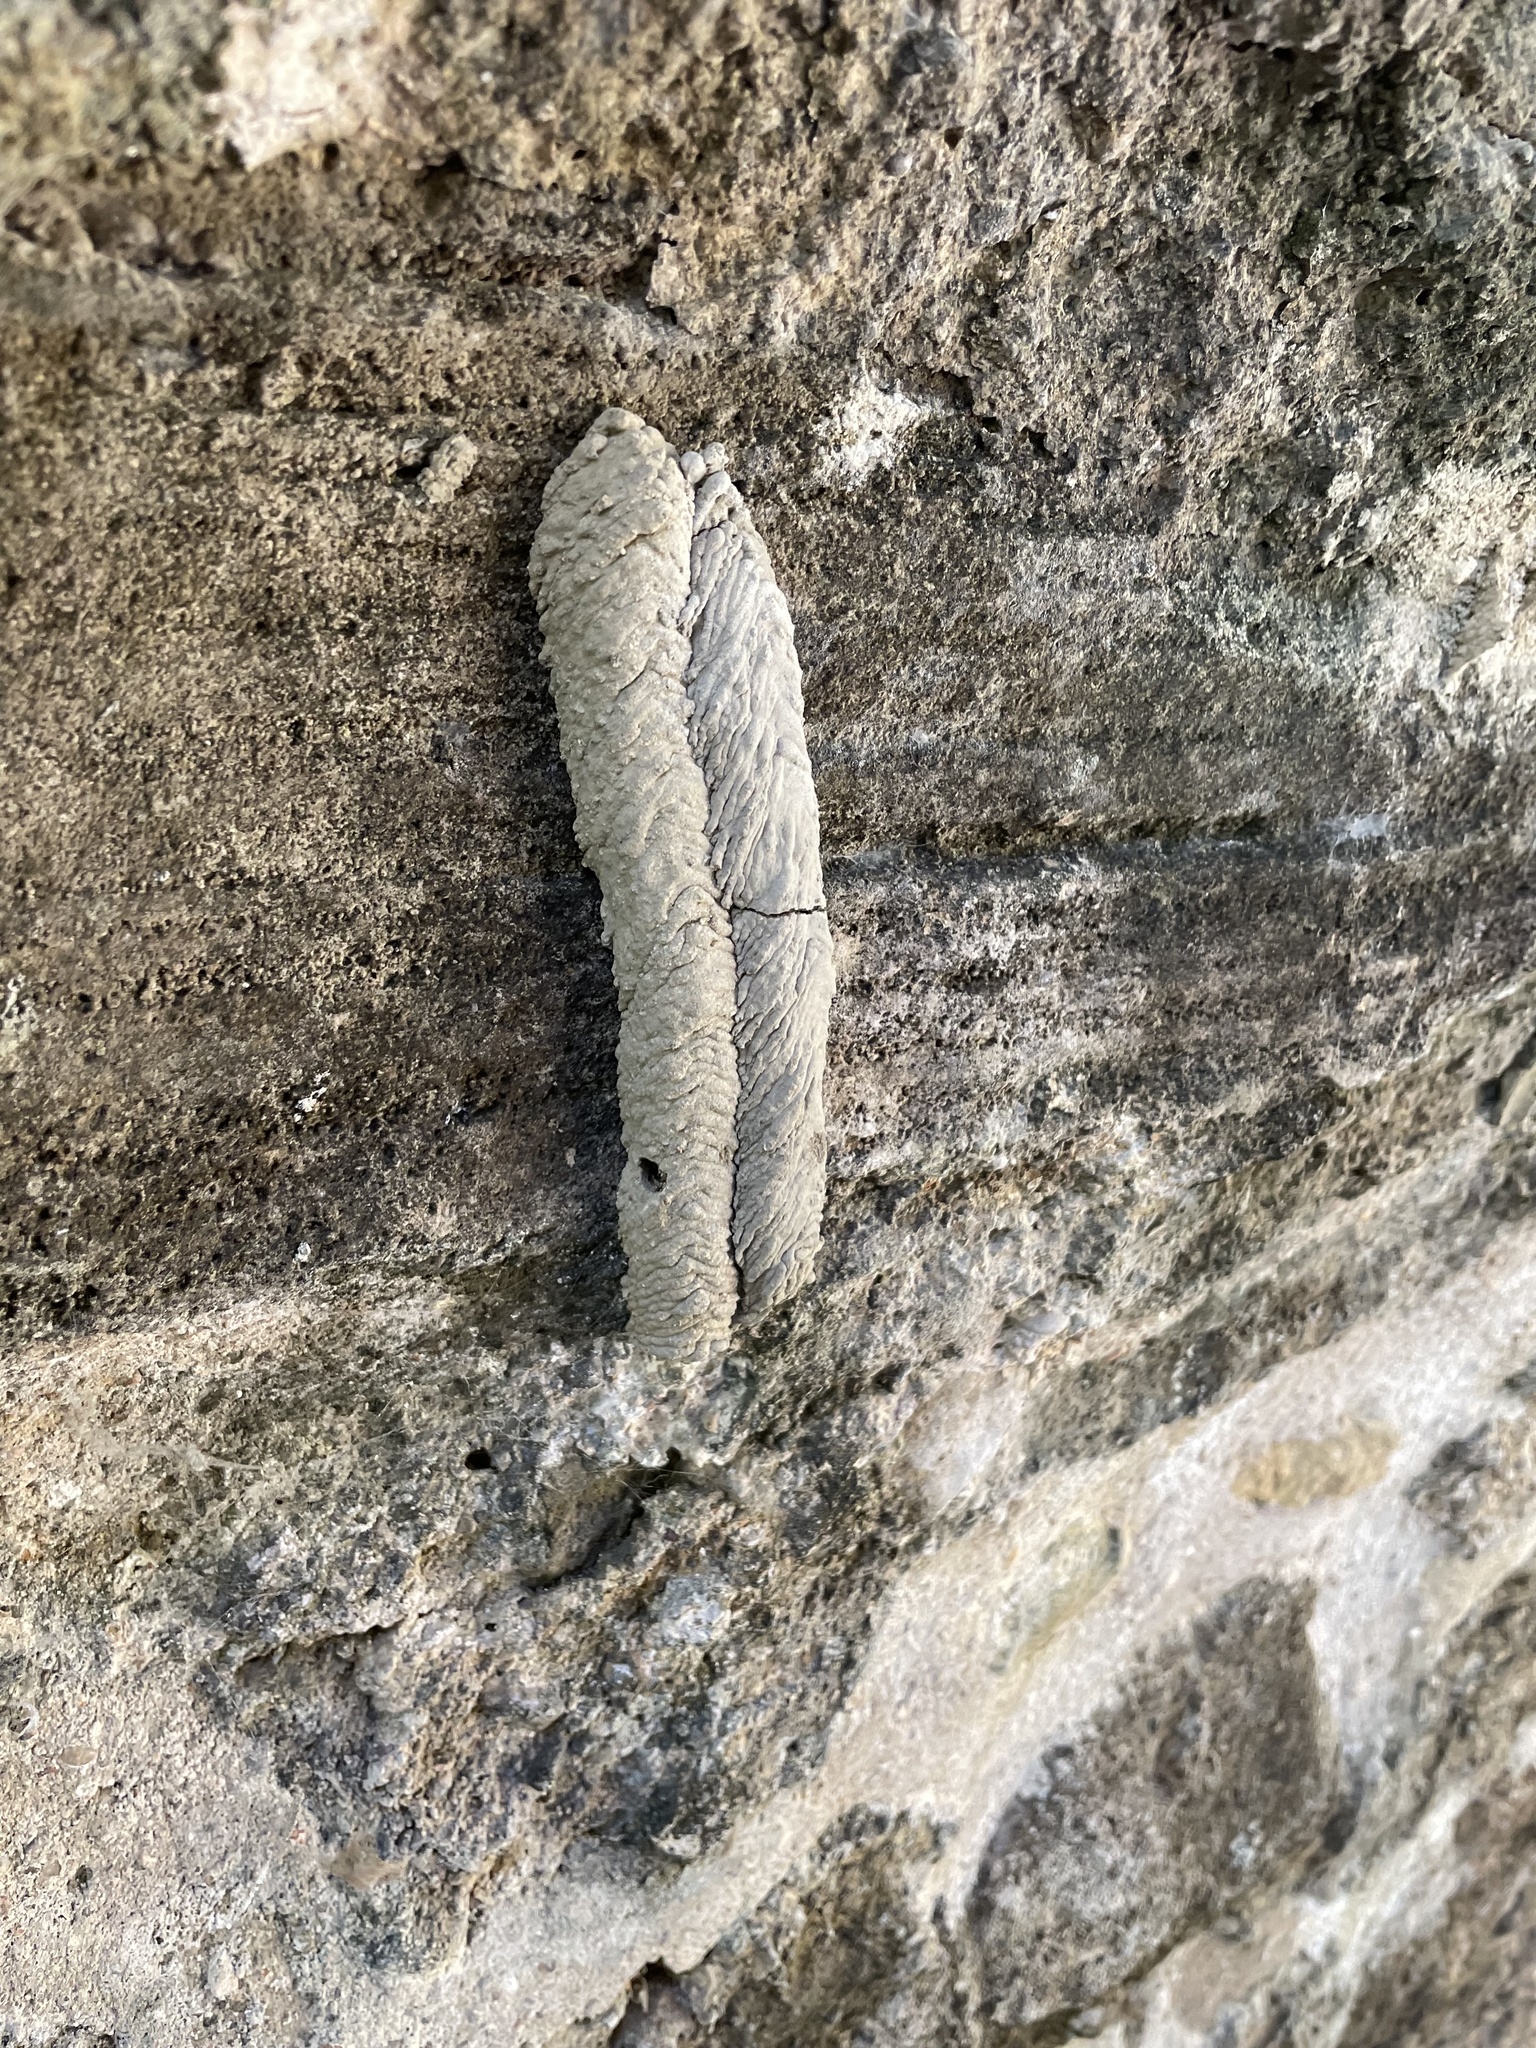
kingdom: Animalia
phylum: Arthropoda
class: Insecta
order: Hymenoptera
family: Crabronidae
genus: Trypoxylon
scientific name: Trypoxylon politum
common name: Organ-pipe mud-dauber wasp
